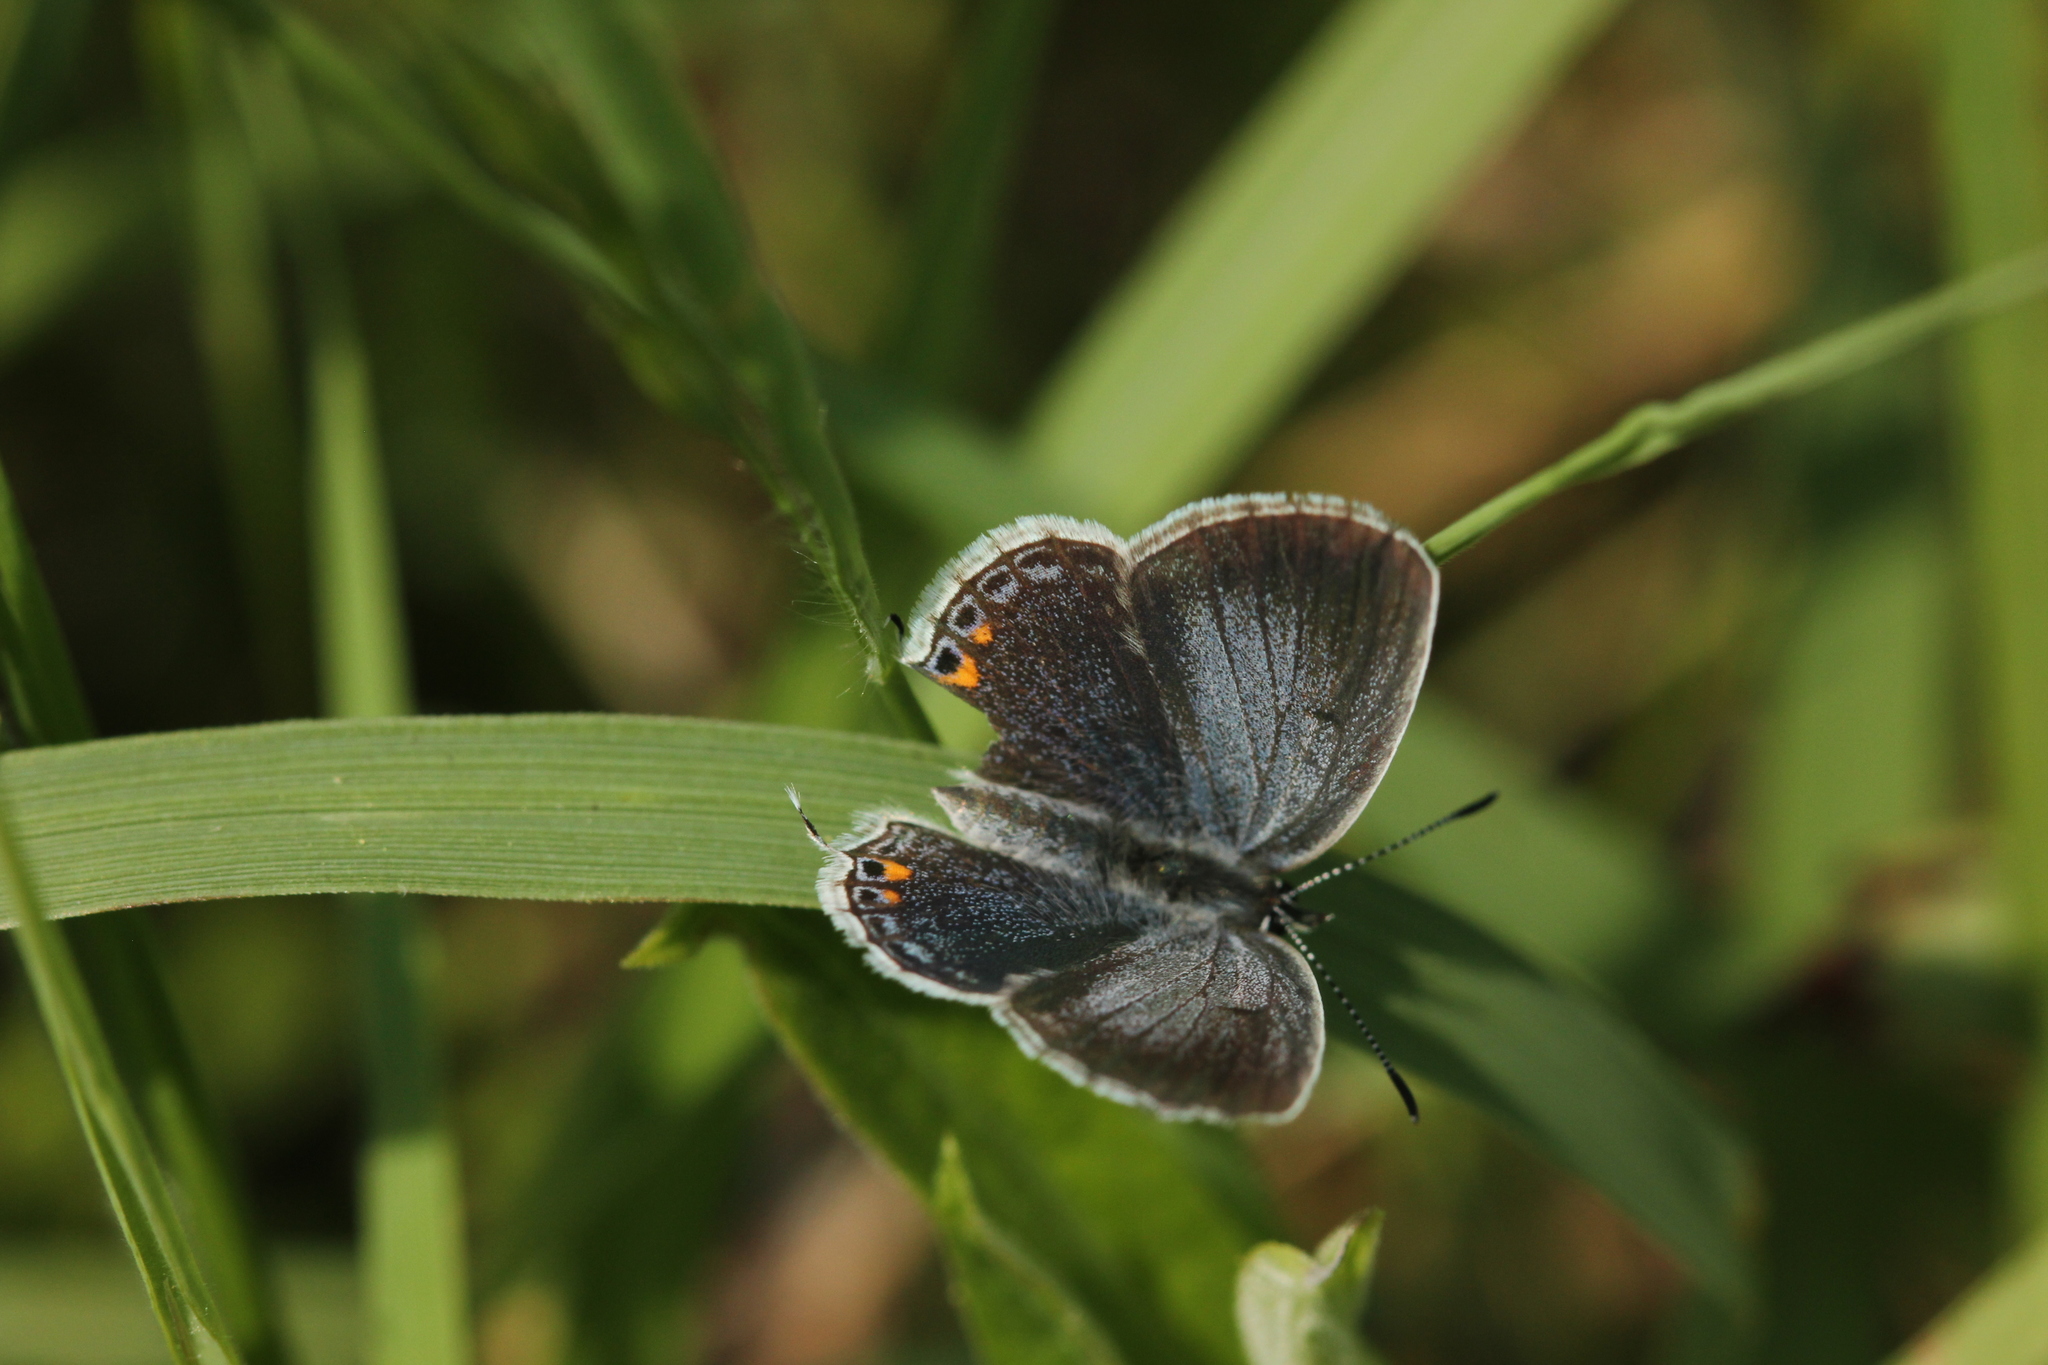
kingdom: Animalia
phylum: Arthropoda
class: Insecta
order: Lepidoptera
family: Lycaenidae
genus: Elkalyce
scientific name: Elkalyce comyntas
